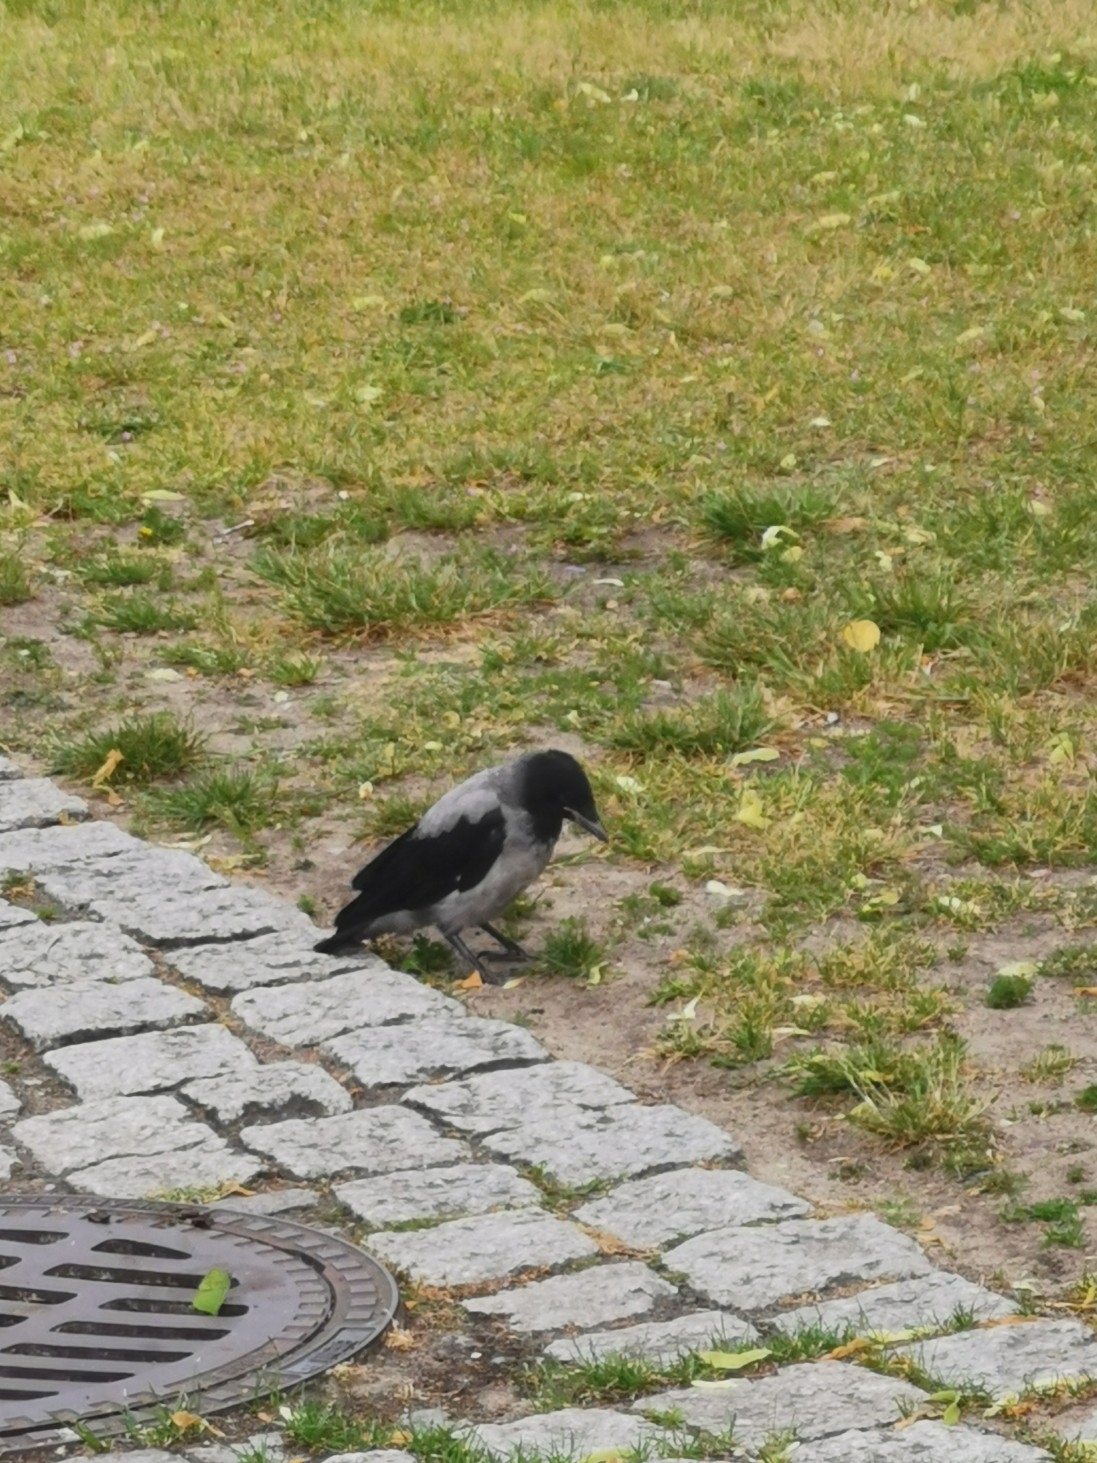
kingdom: Animalia
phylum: Chordata
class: Aves
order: Passeriformes
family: Corvidae
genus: Corvus
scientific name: Corvus cornix
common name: Hooded crow
